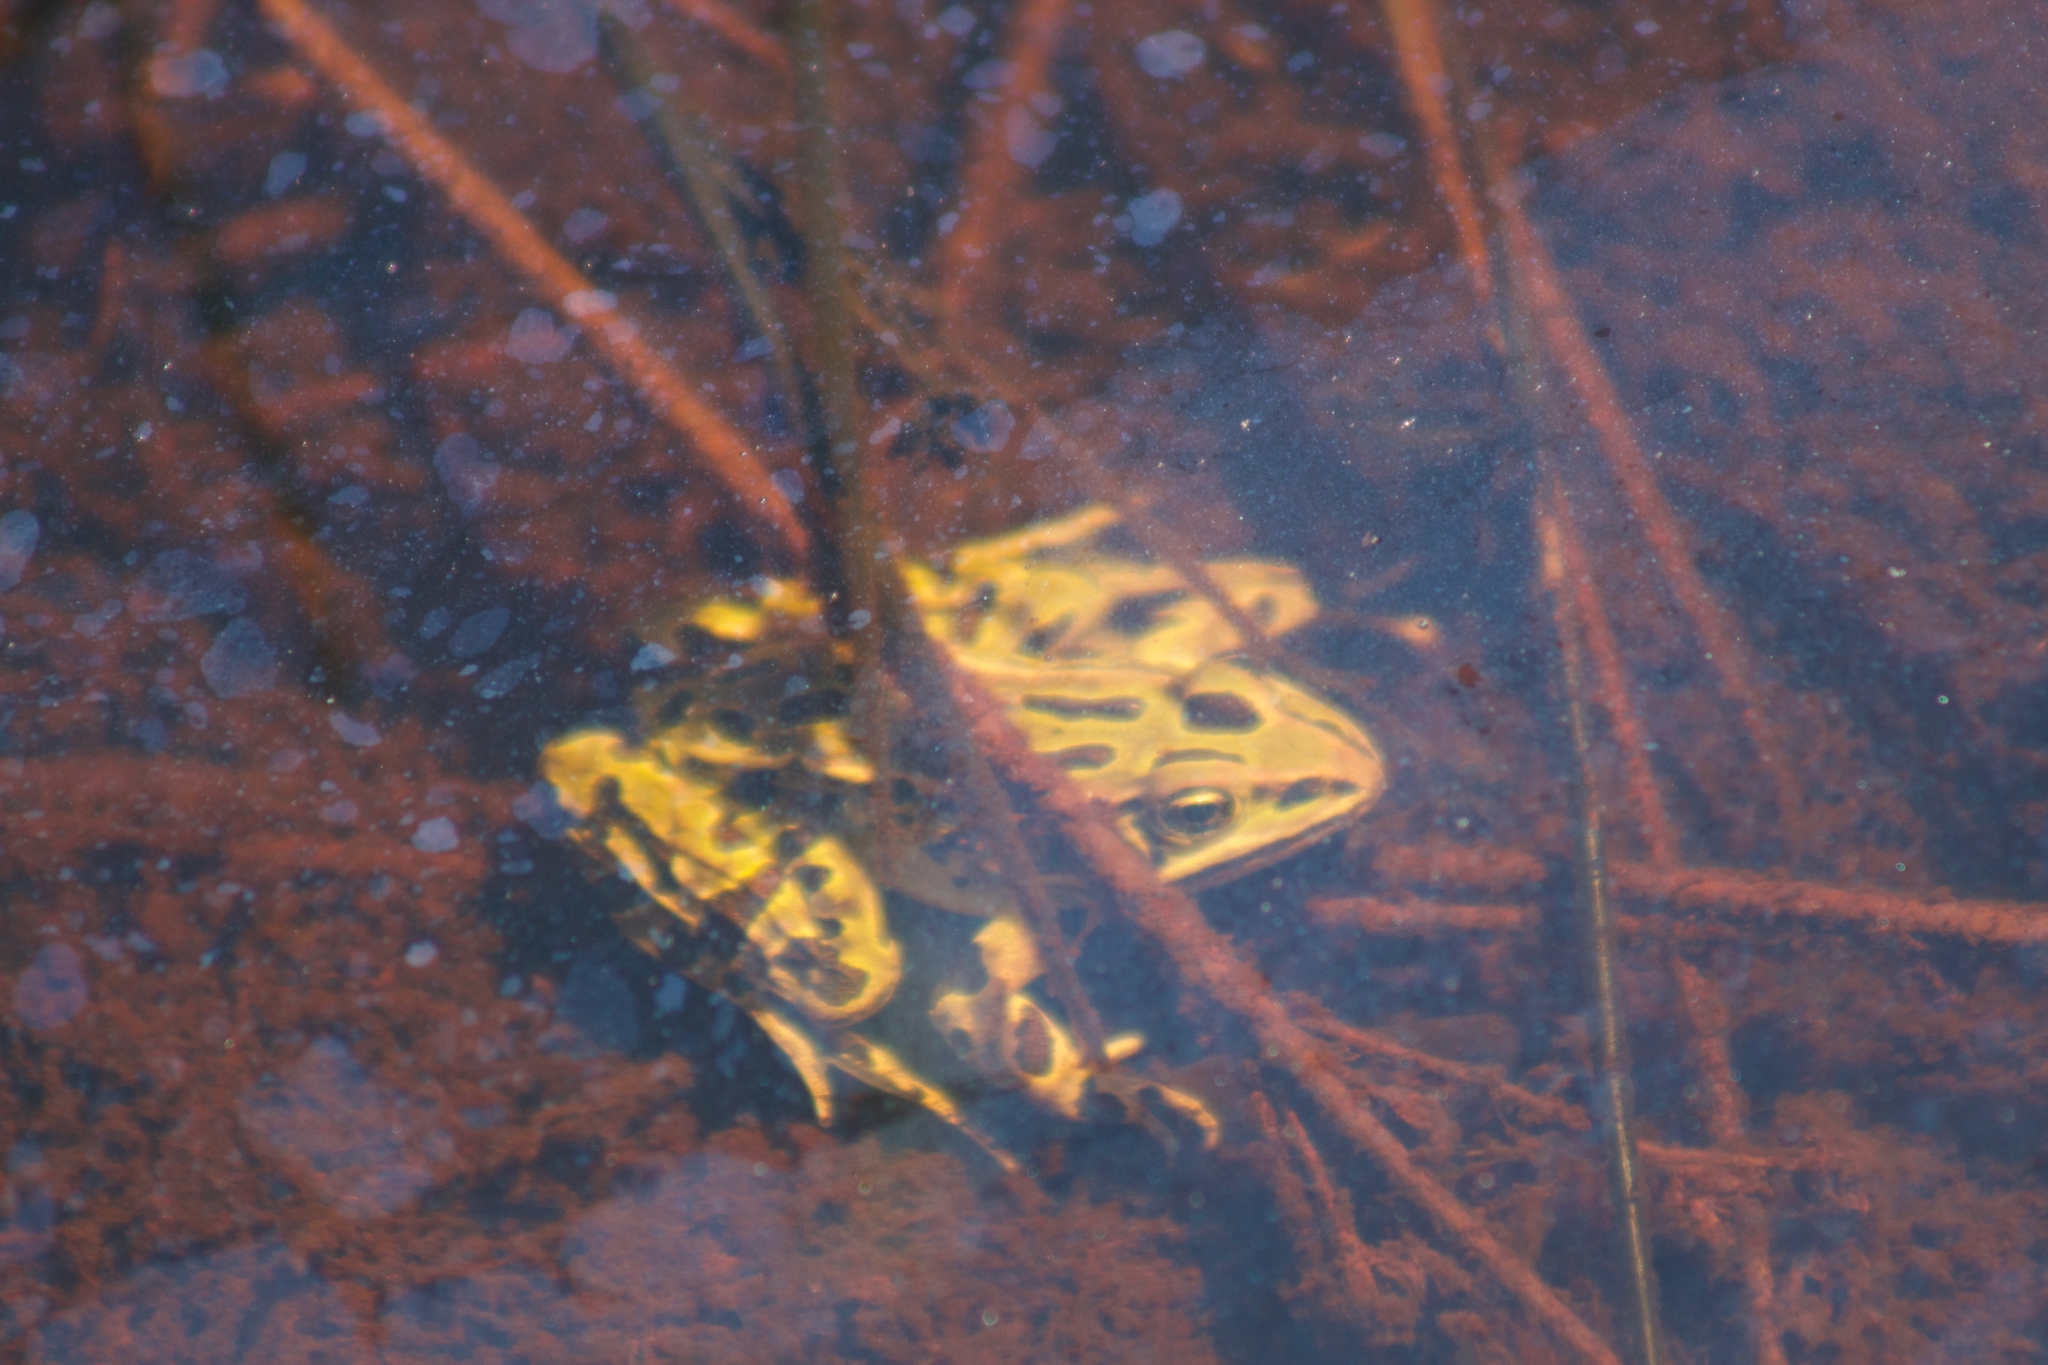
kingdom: Animalia
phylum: Chordata
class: Amphibia
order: Anura
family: Ranidae
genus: Lithobates
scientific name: Lithobates pipiens
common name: Northern leopard frog
